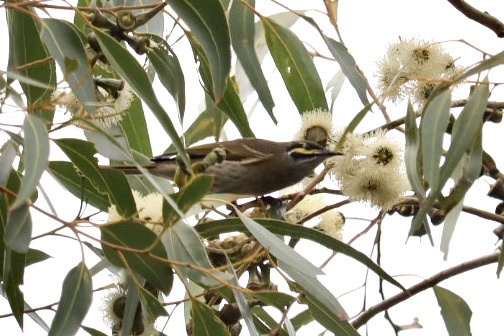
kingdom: Animalia
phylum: Chordata
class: Aves
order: Passeriformes
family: Meliphagidae
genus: Caligavis
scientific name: Caligavis chrysops
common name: Yellow-faced honeyeater
